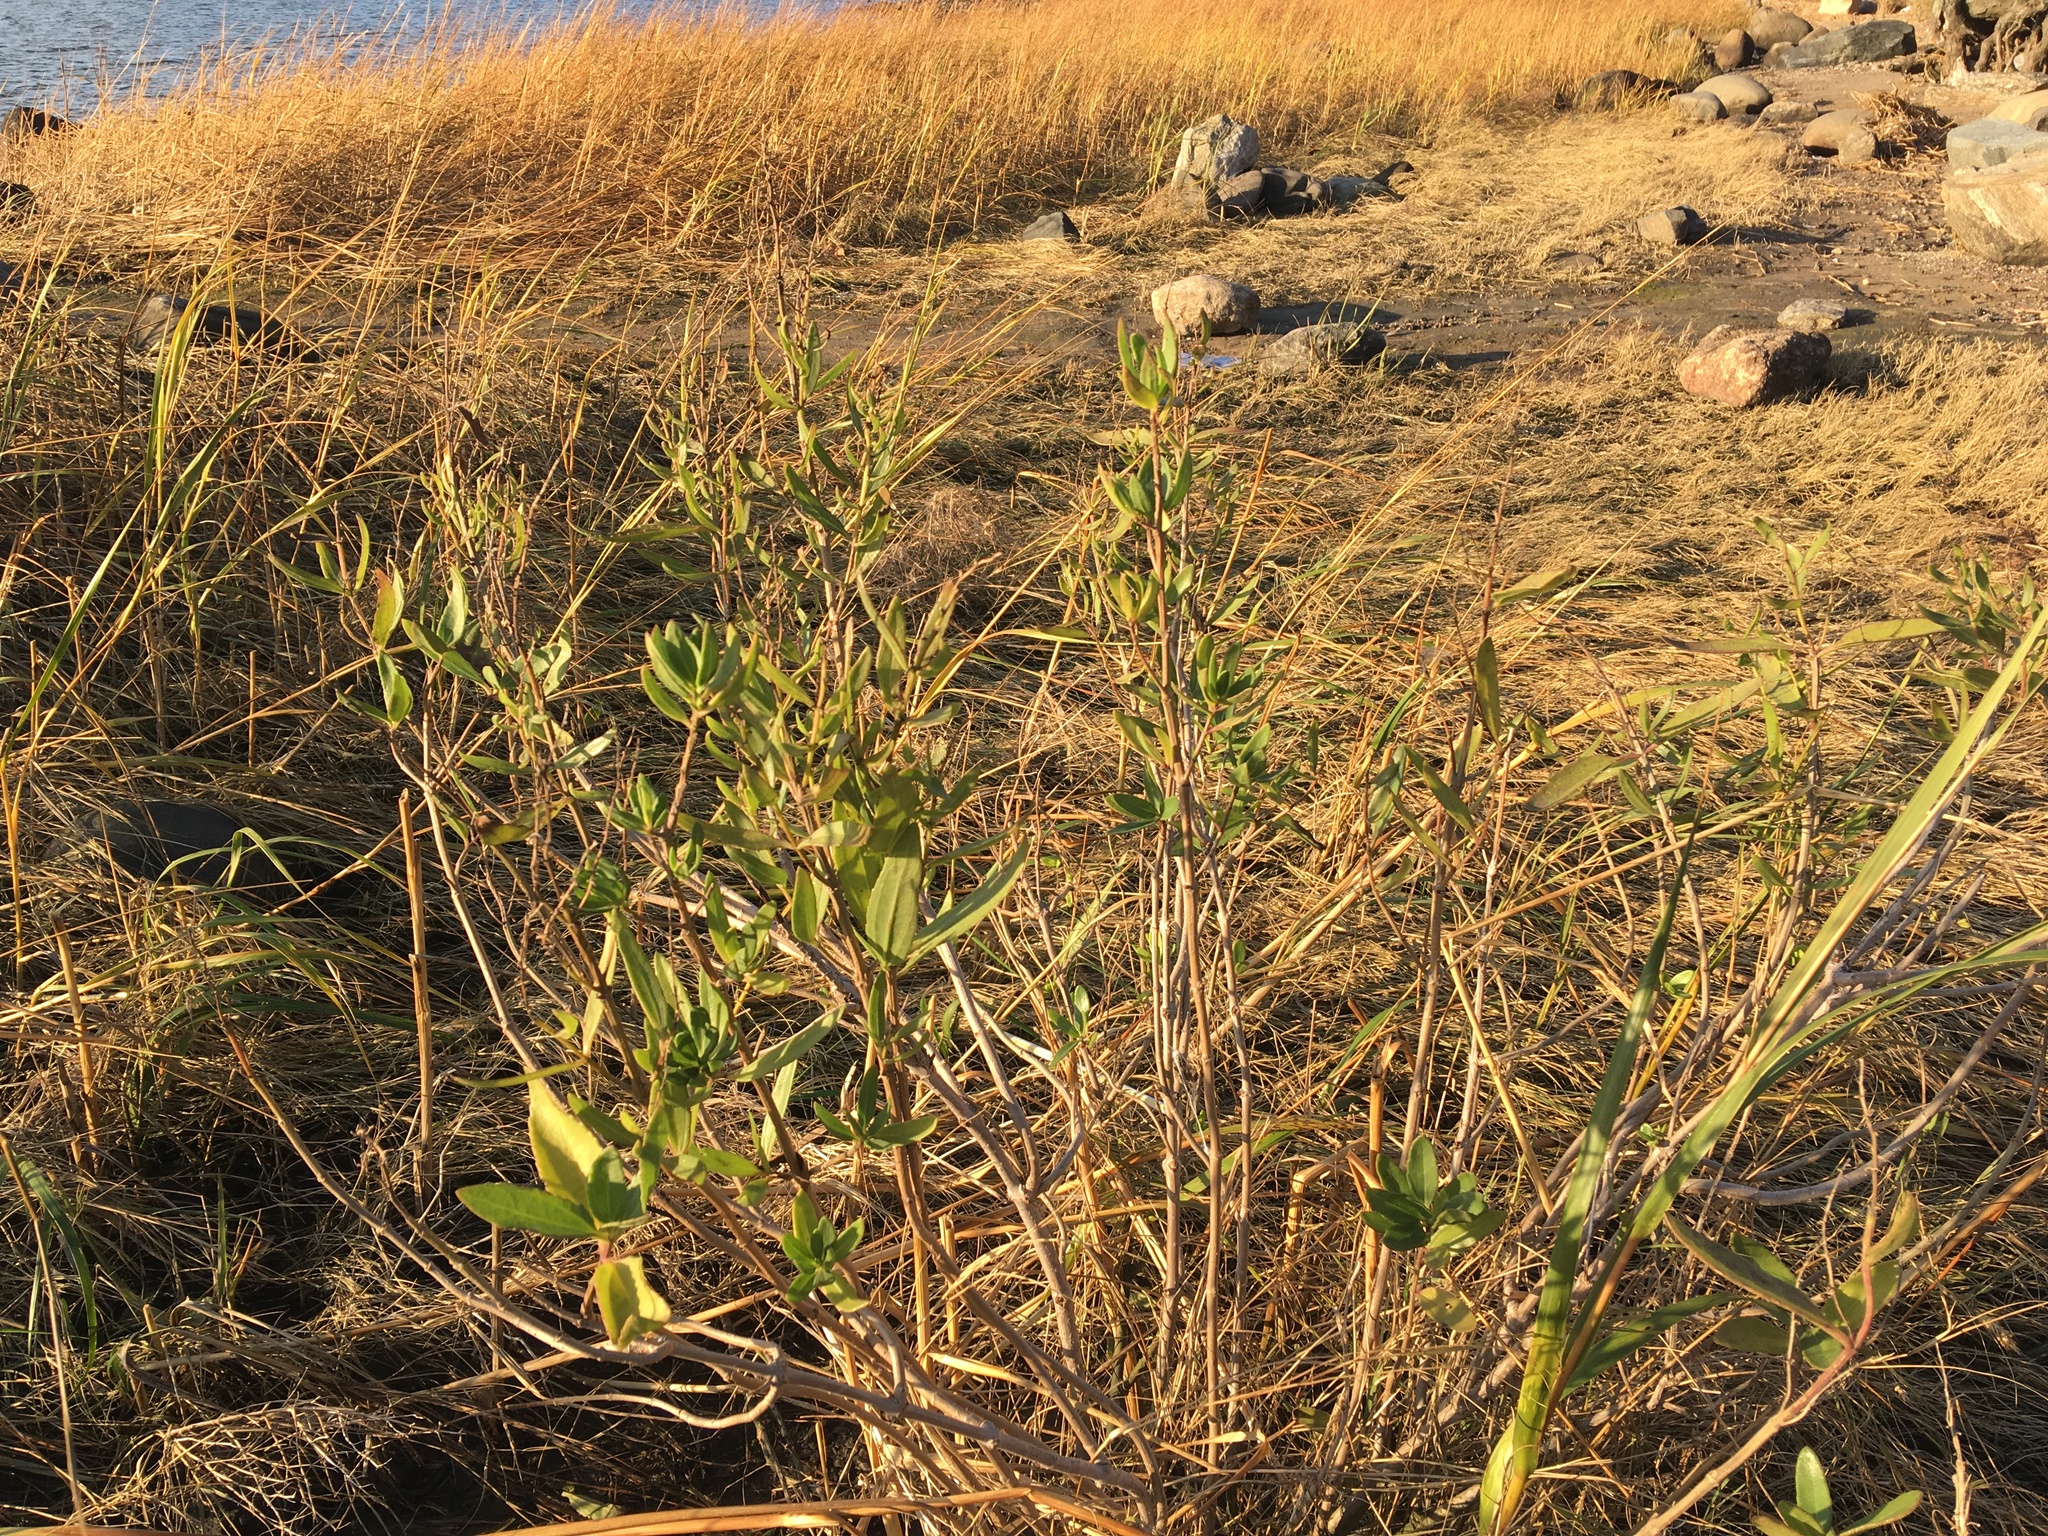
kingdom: Plantae
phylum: Tracheophyta
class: Magnoliopsida
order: Asterales
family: Asteraceae
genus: Iva
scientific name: Iva frutescens
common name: Big-leaved marsh-elder
